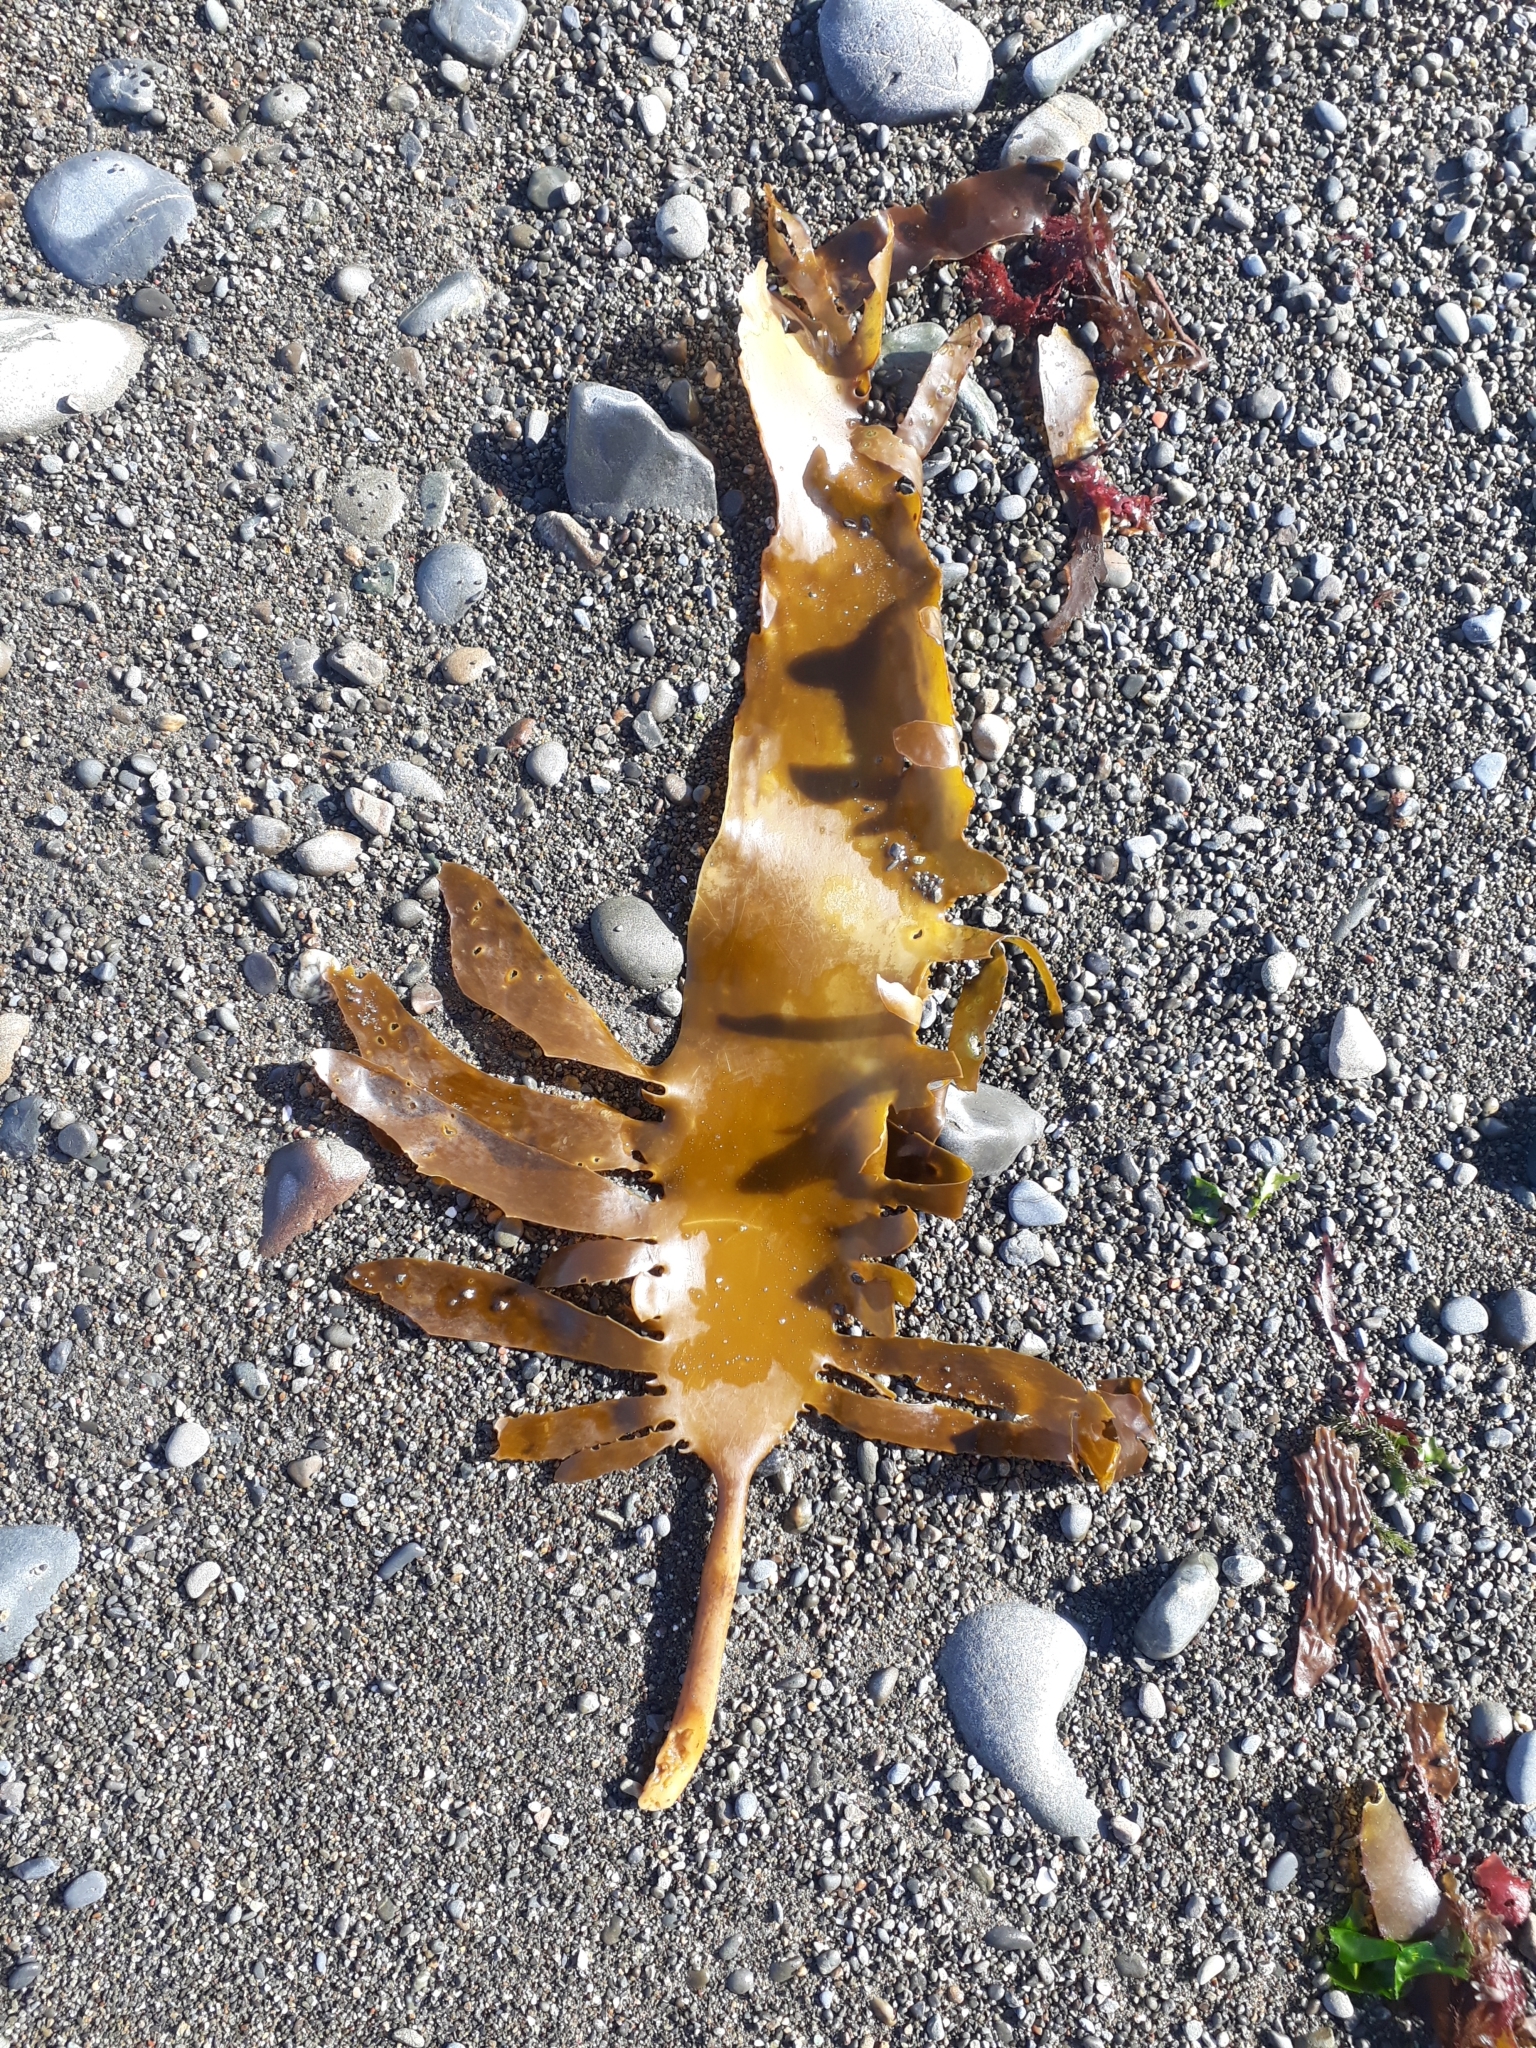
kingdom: Chromista
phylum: Ochrophyta
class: Phaeophyceae
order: Laminariales
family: Lessoniaceae
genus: Ecklonia
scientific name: Ecklonia radiata
